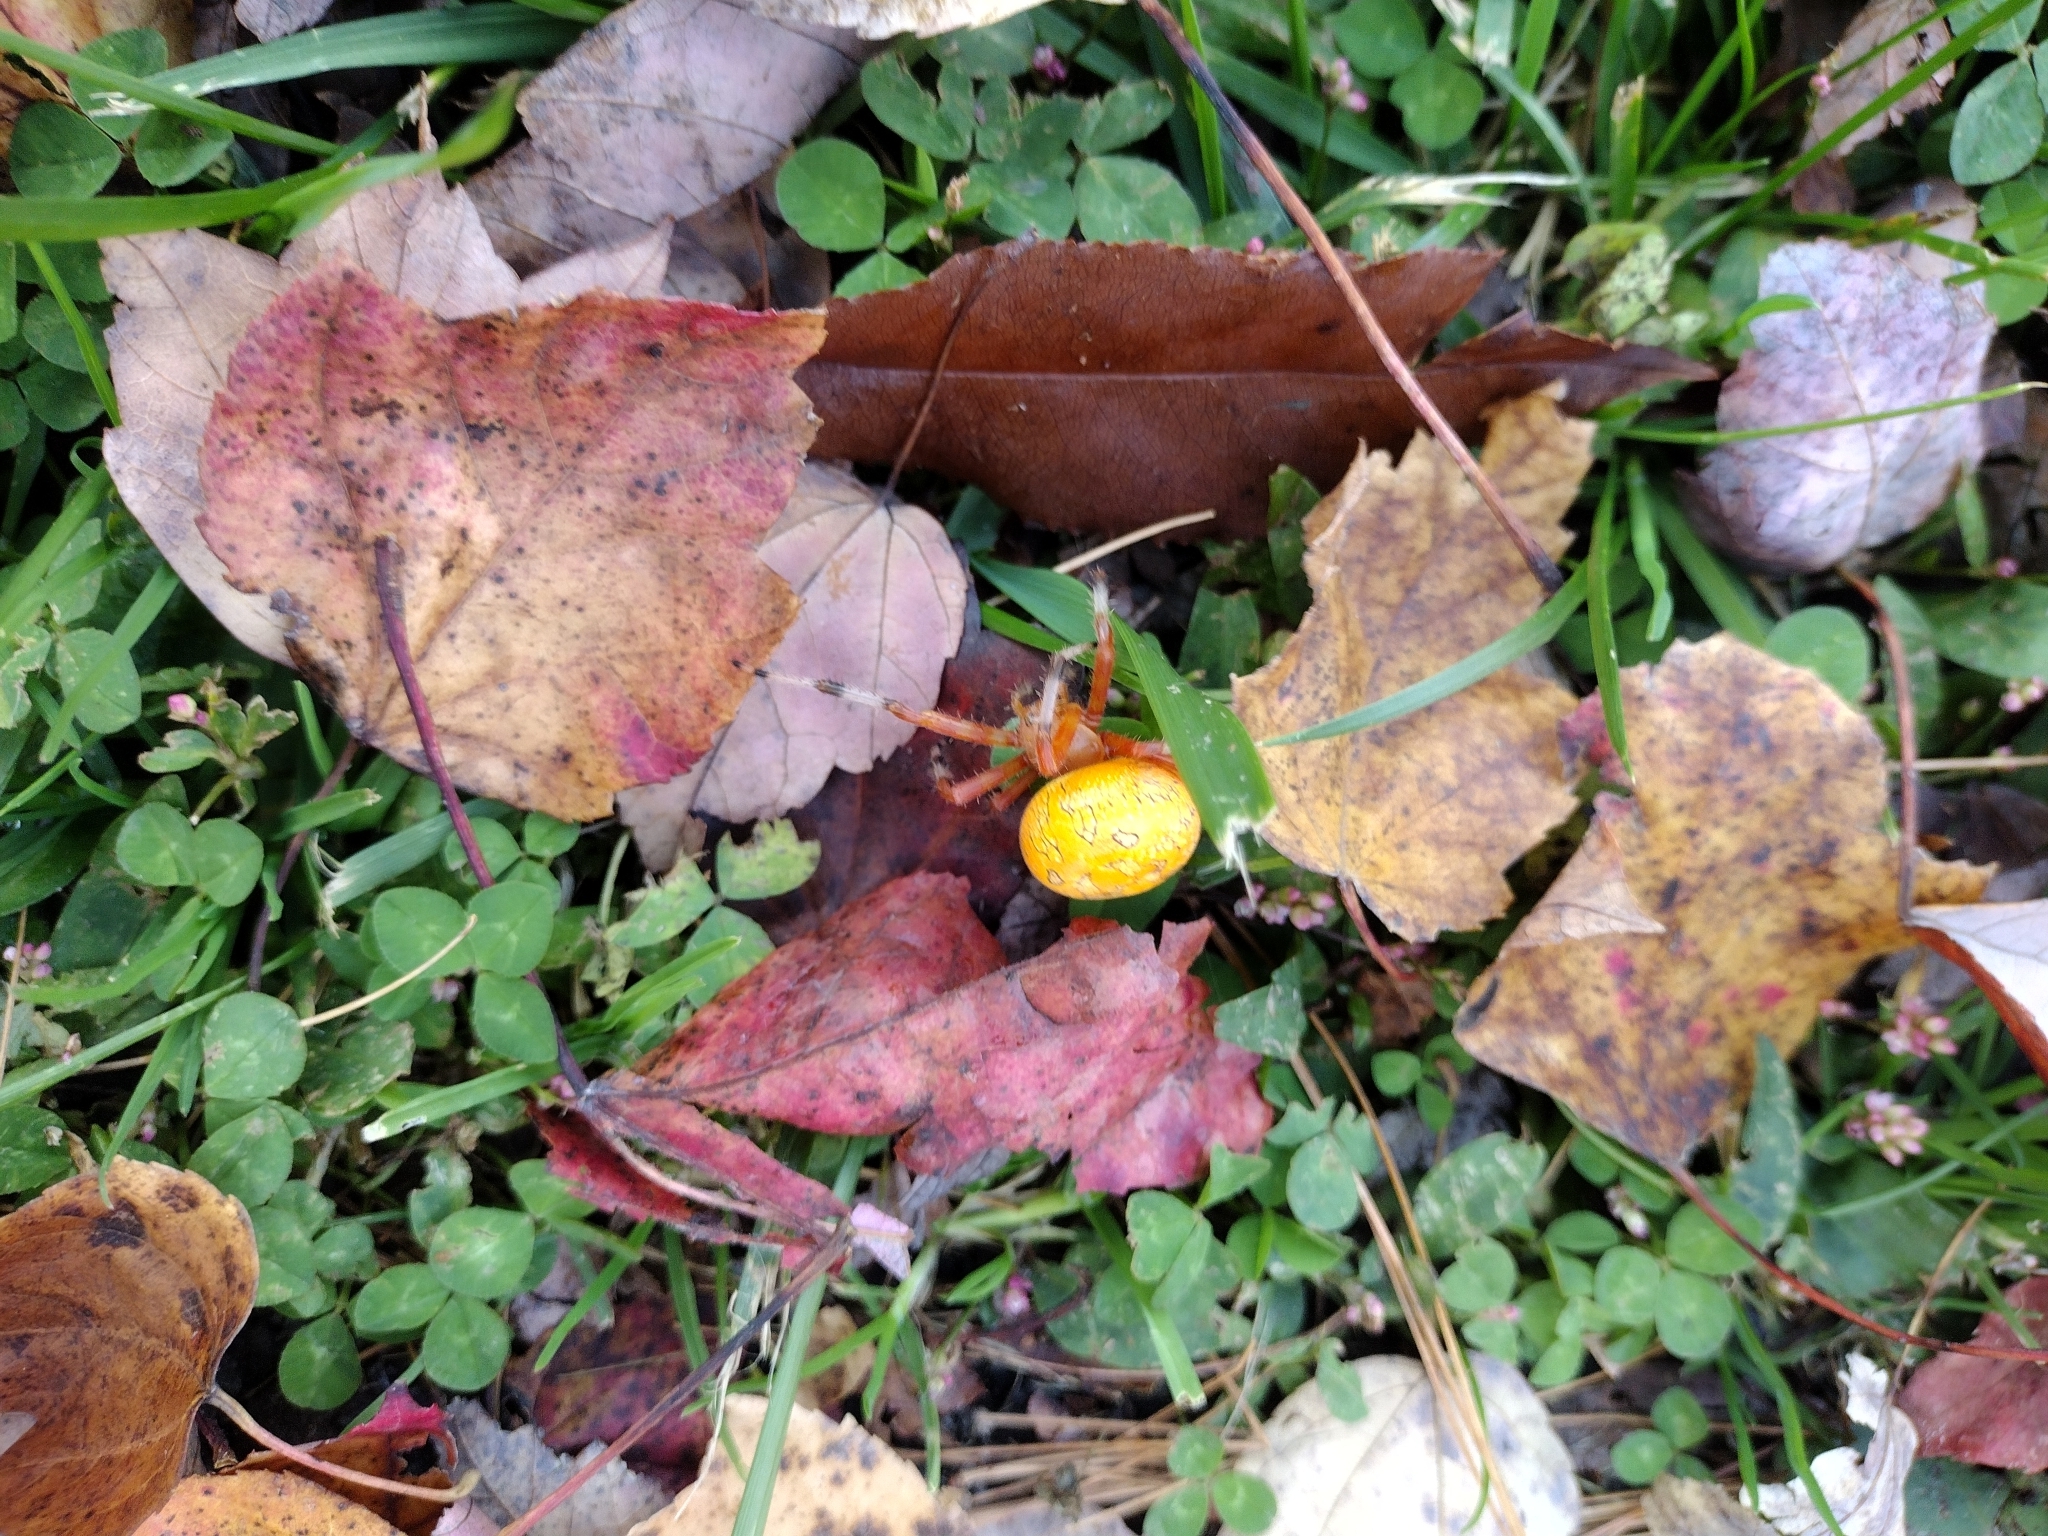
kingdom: Animalia
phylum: Arthropoda
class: Arachnida
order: Araneae
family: Araneidae
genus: Araneus
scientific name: Araneus marmoreus
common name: Marbled orbweaver
